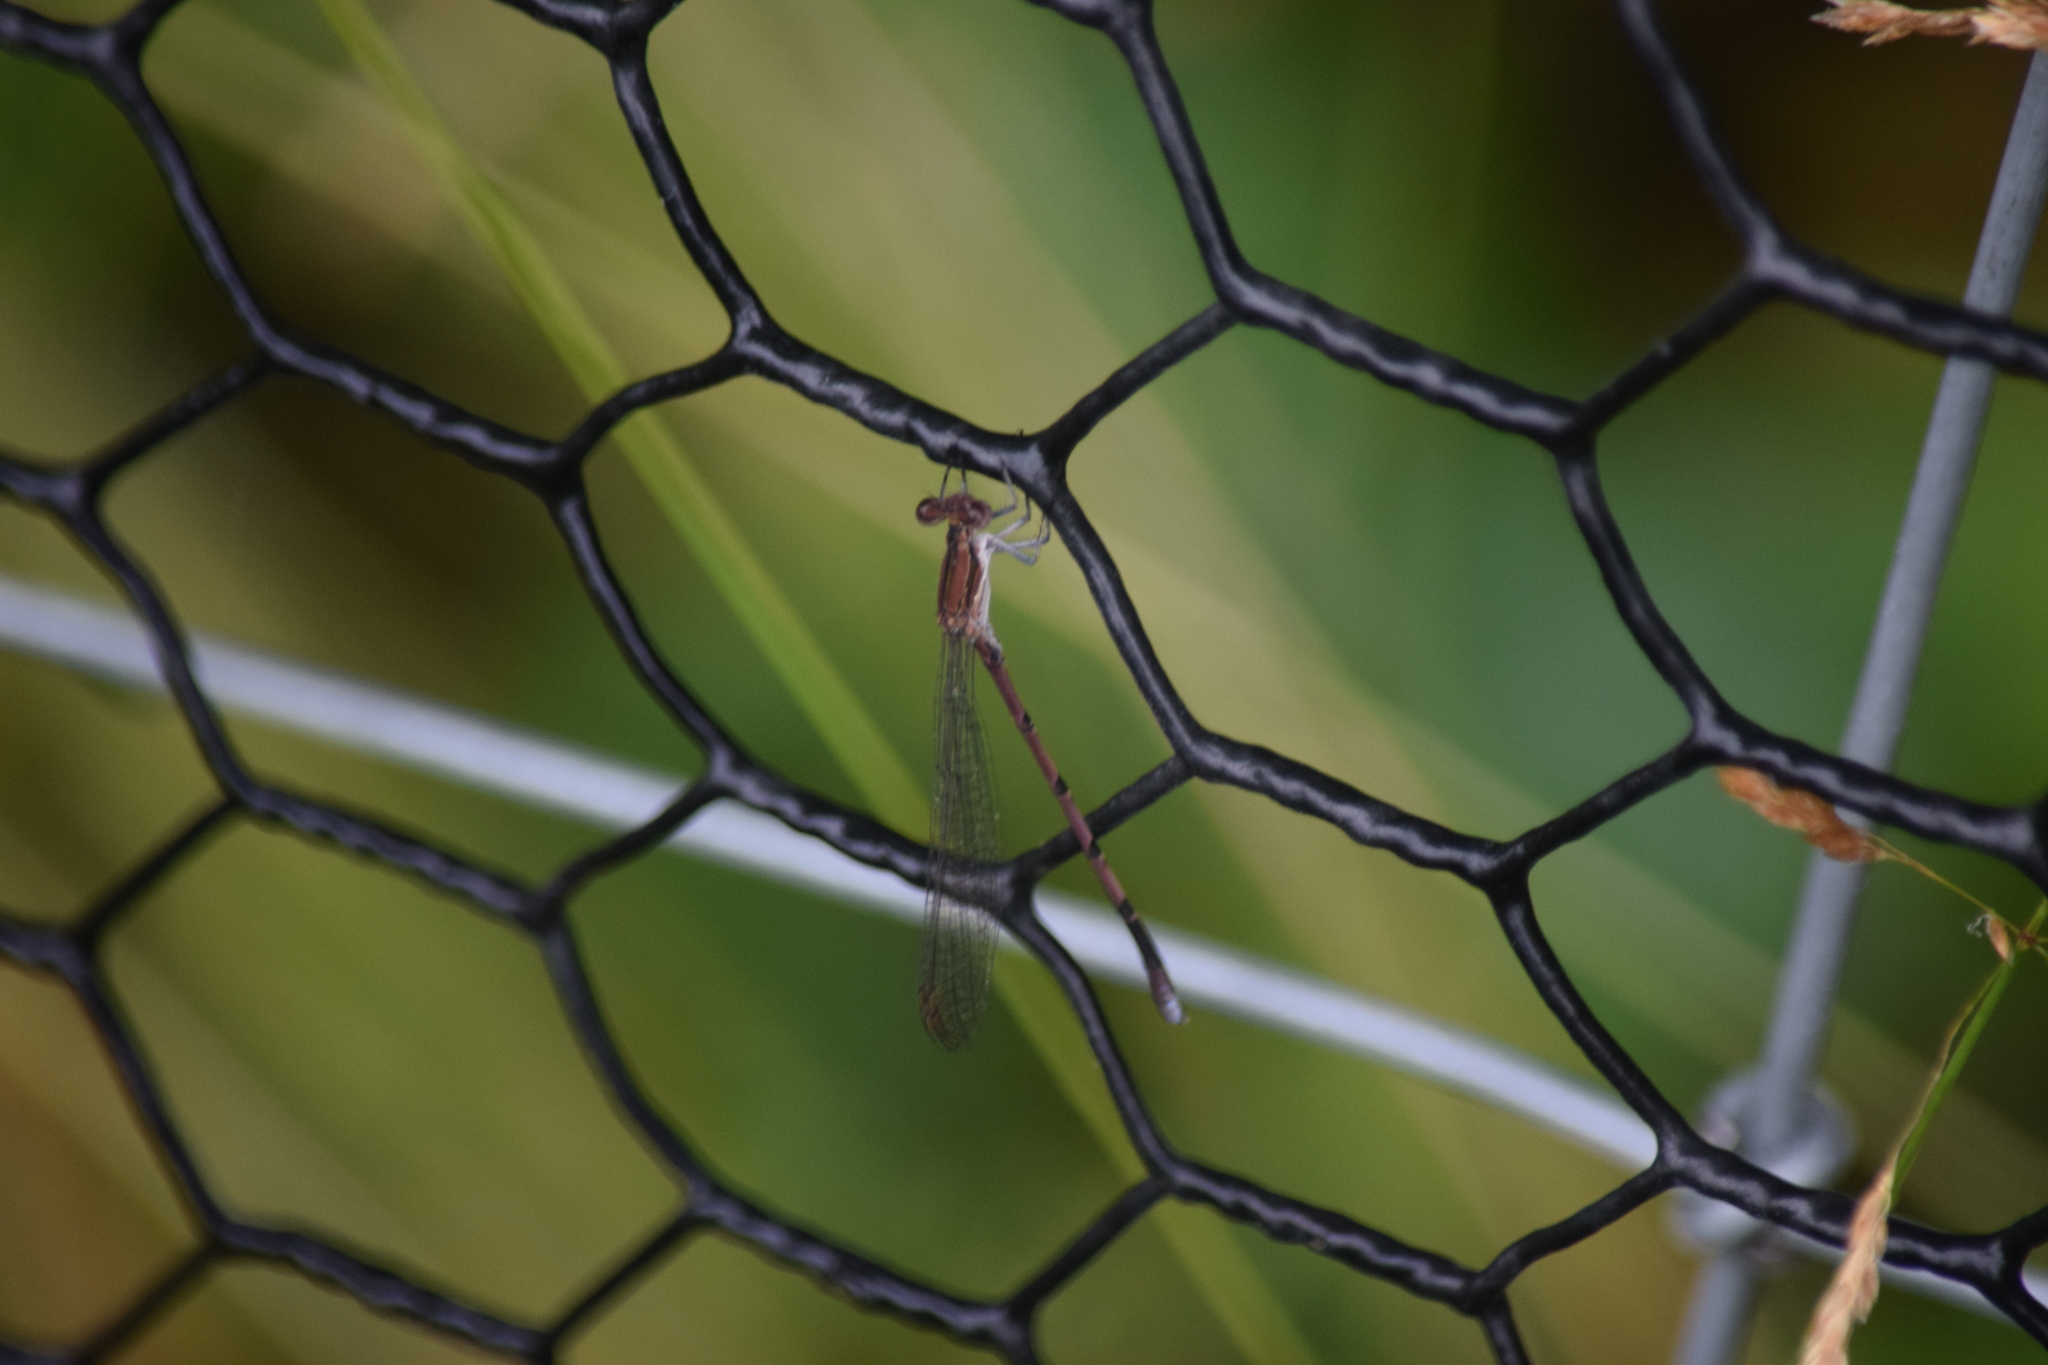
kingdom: Animalia
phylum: Arthropoda
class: Insecta
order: Odonata
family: Coenagrionidae
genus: Argia
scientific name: Argia fumipennis
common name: Variable dancer
